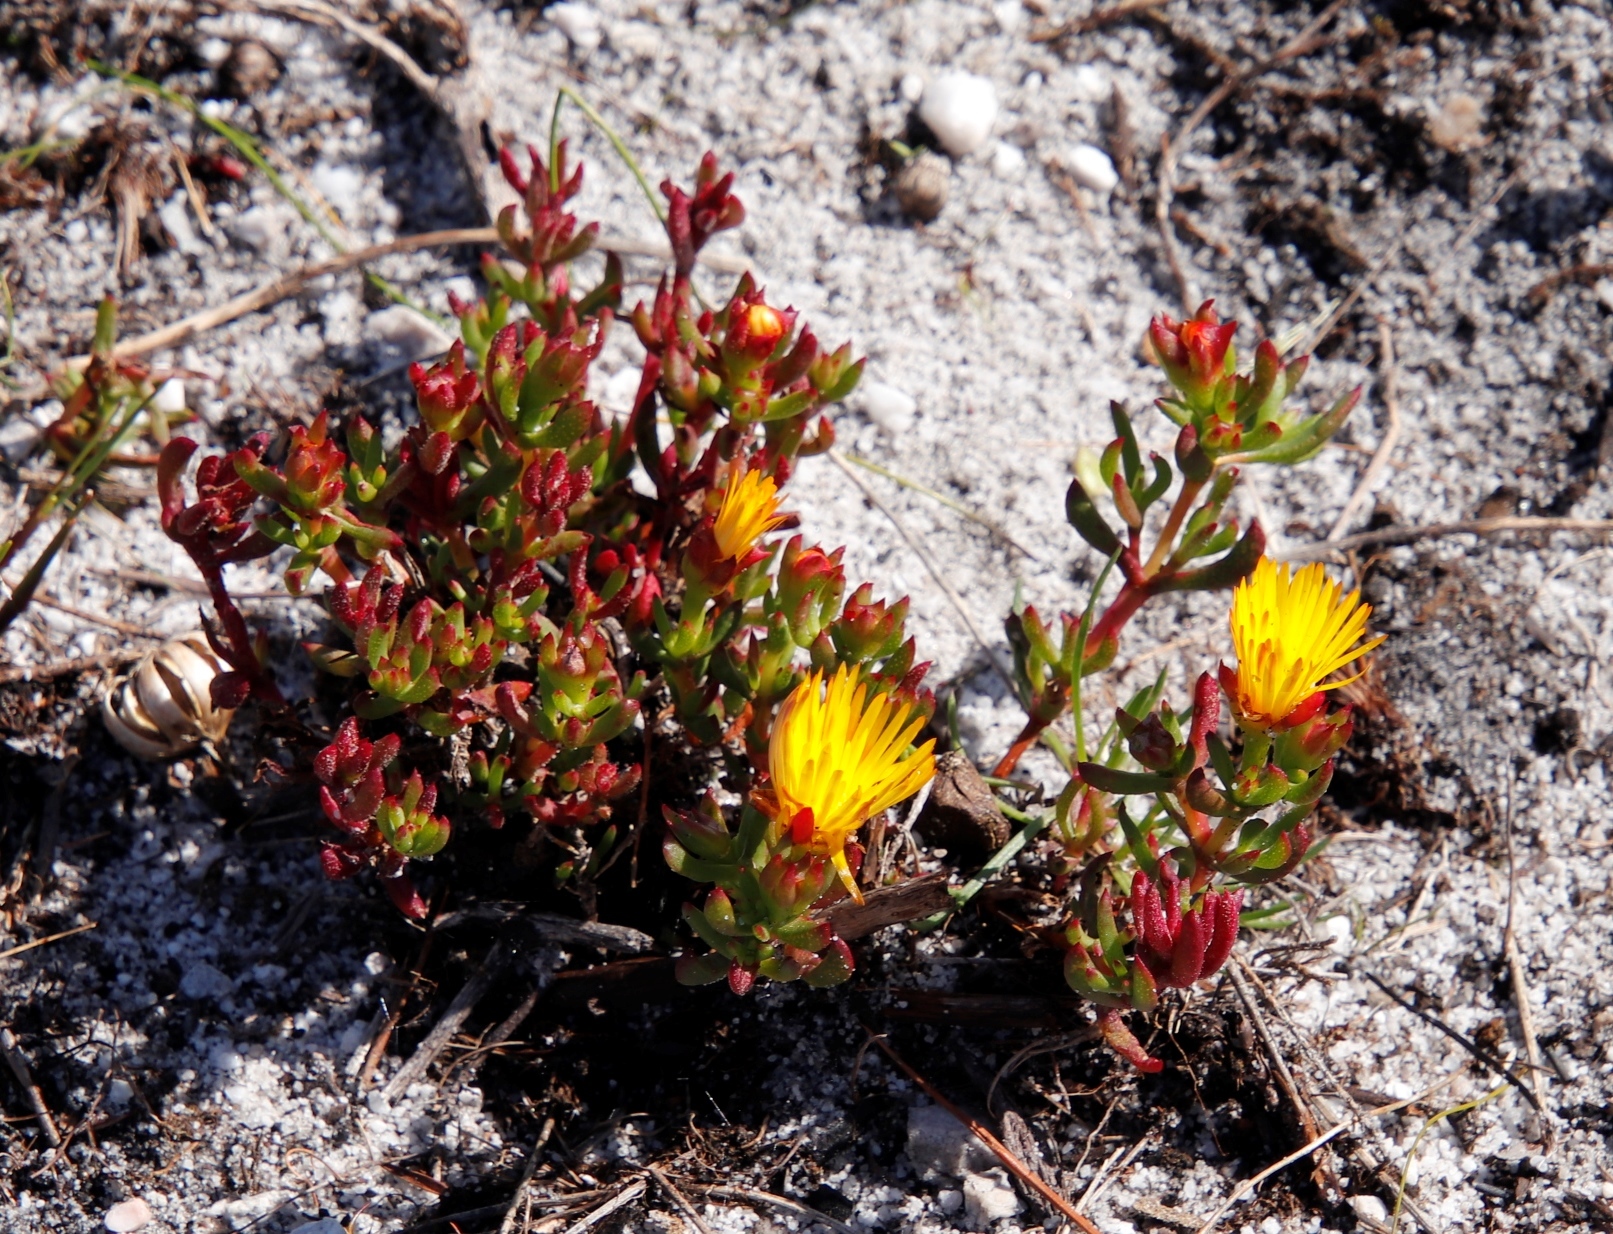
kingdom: Plantae
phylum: Tracheophyta
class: Magnoliopsida
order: Caryophyllales
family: Aizoaceae
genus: Lampranthus
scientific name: Lampranthus promontorii
